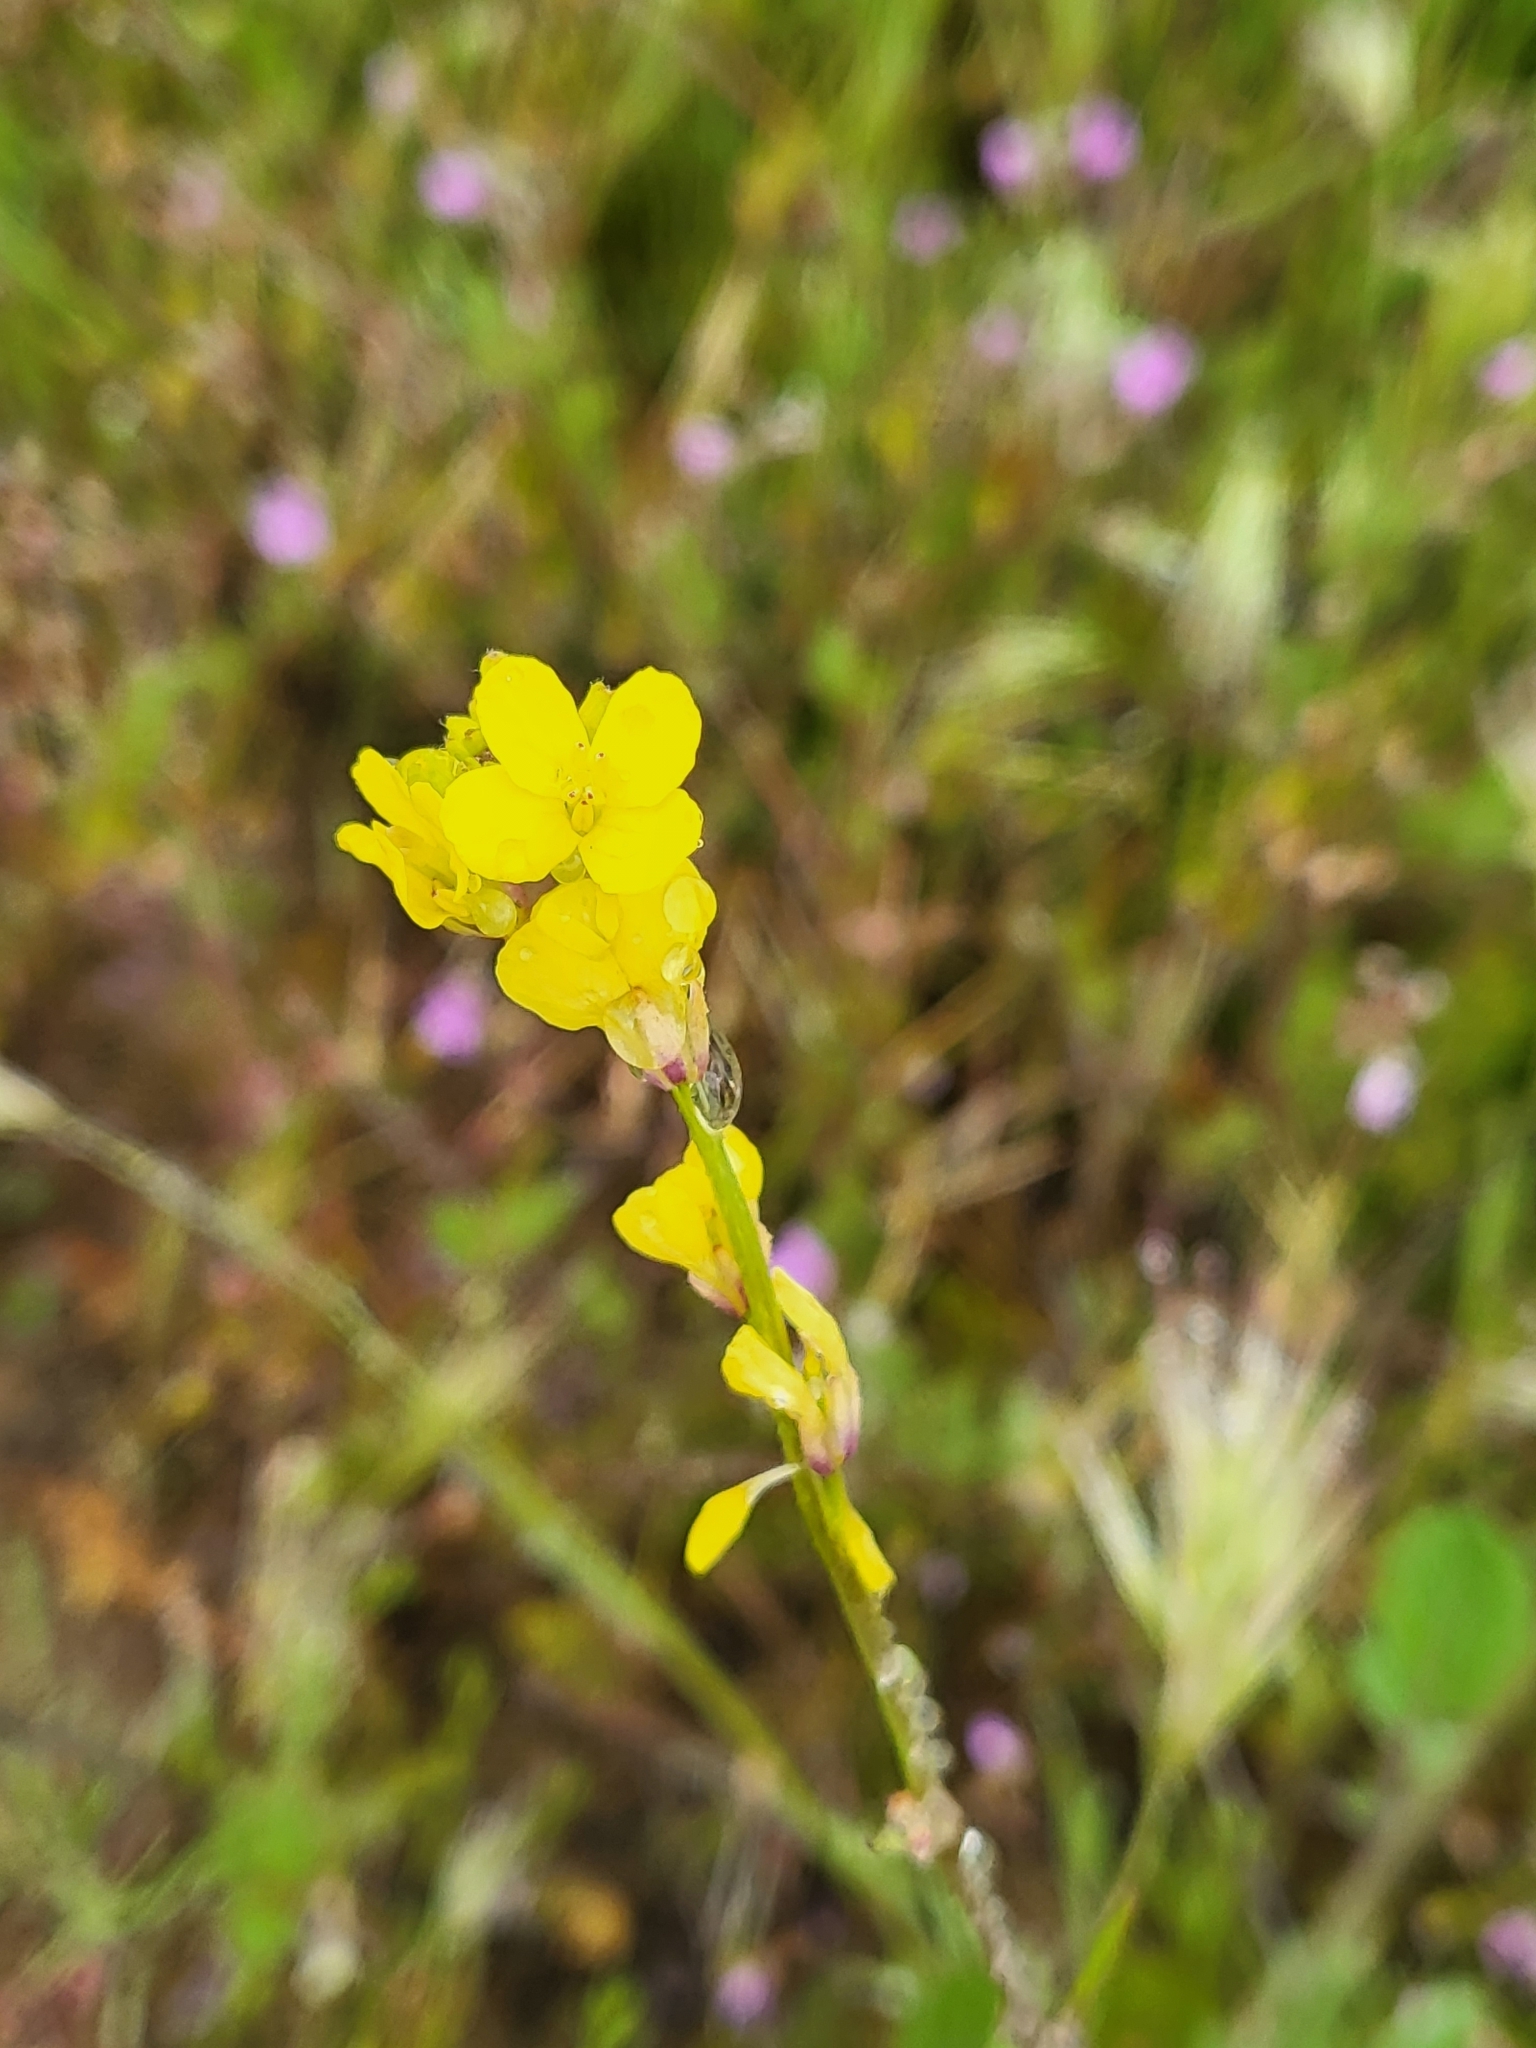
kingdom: Plantae
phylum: Tracheophyta
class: Magnoliopsida
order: Brassicales
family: Brassicaceae
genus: Hirschfeldia
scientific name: Hirschfeldia incana
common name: Hoary mustard
